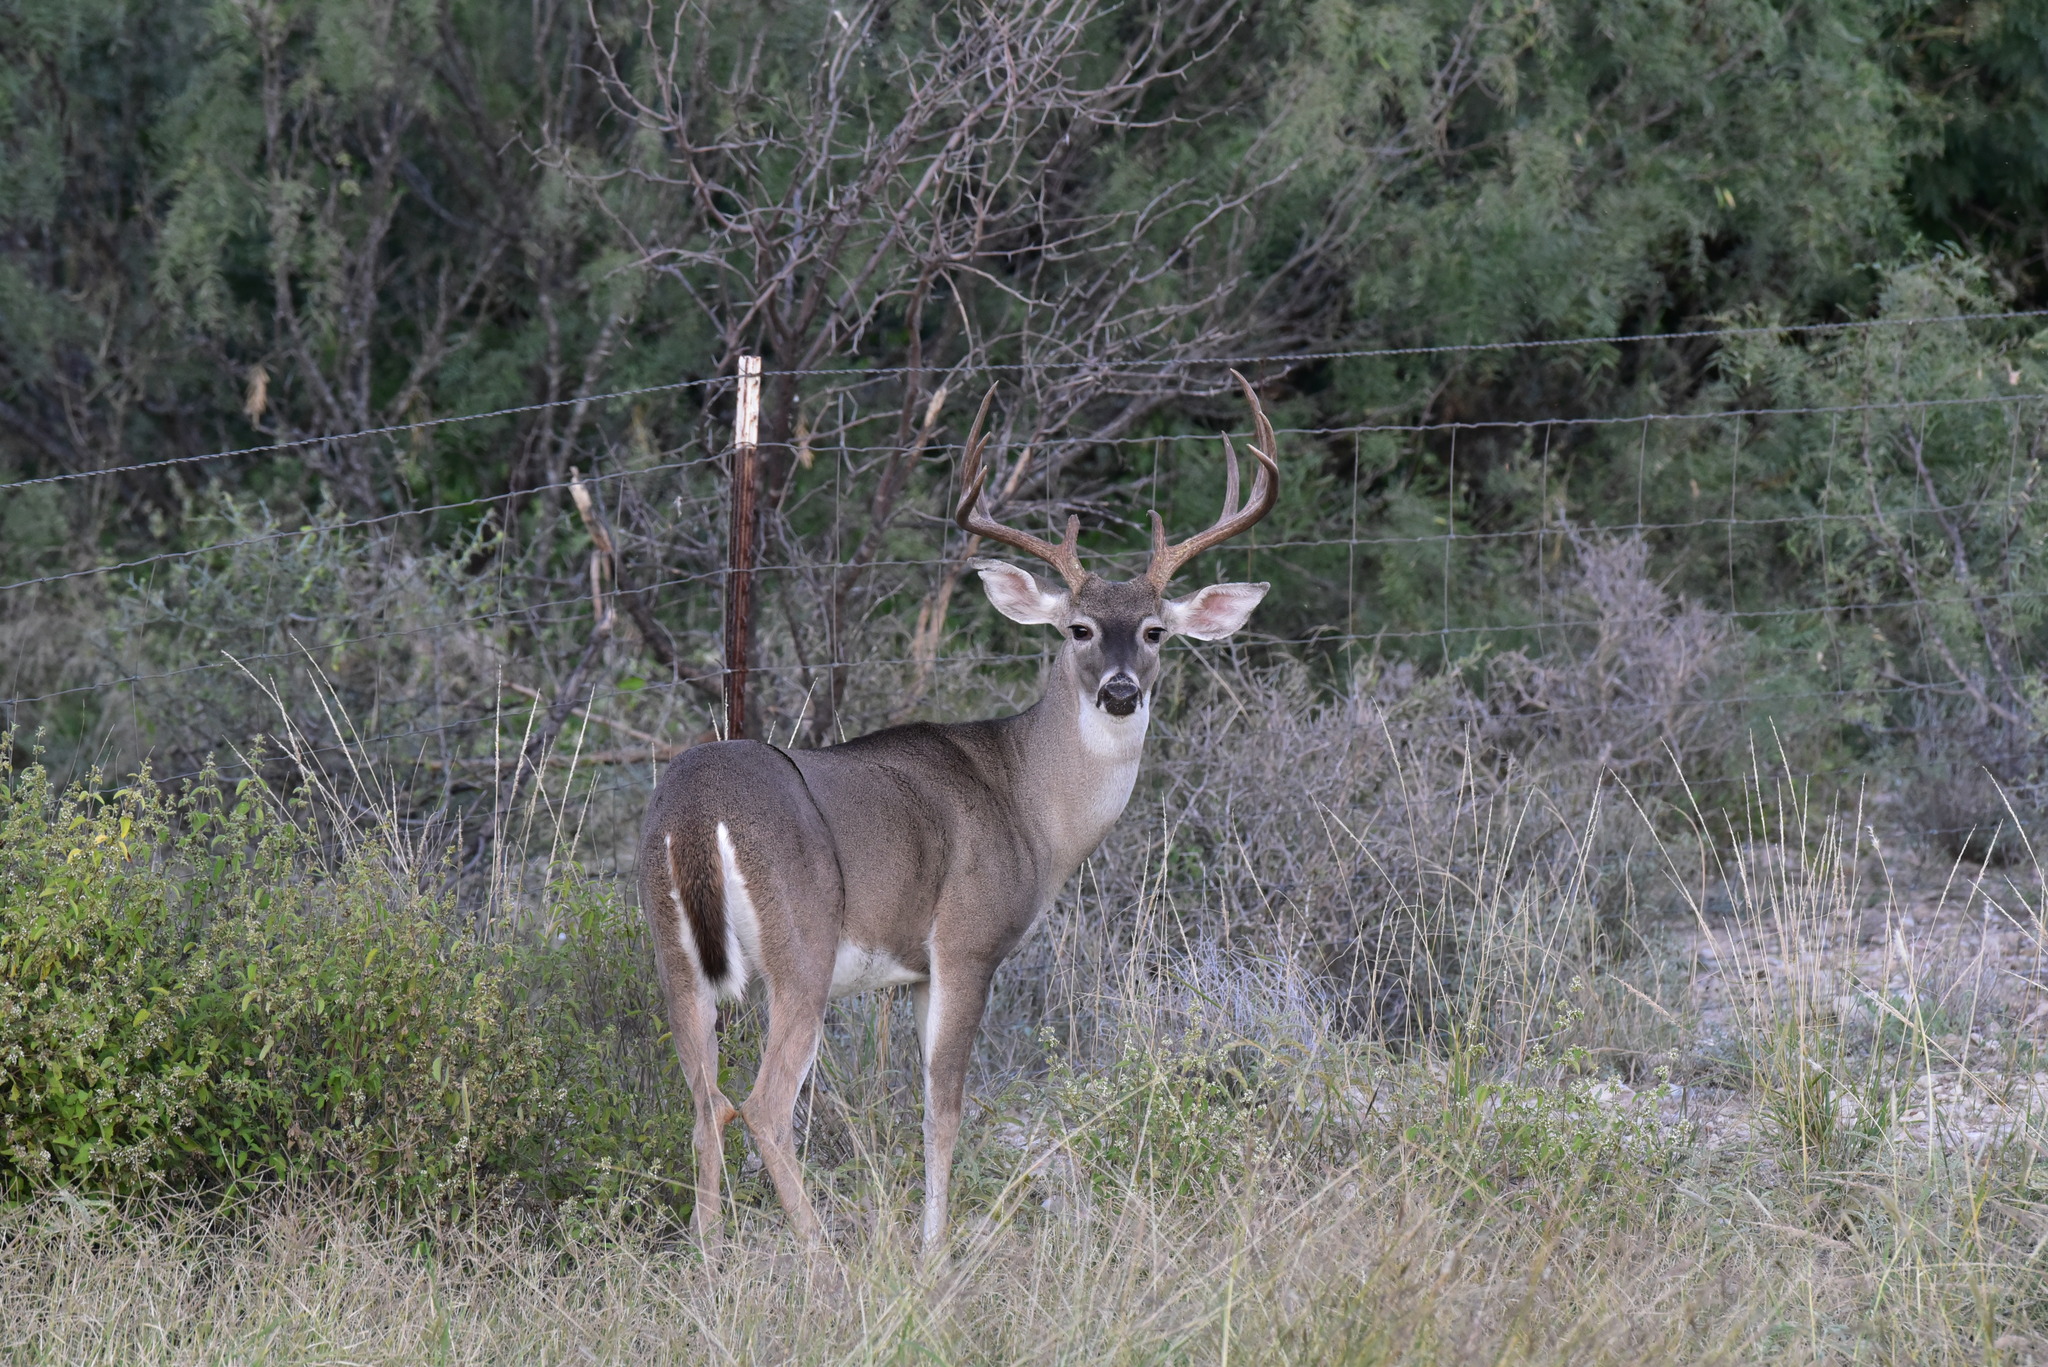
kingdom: Animalia
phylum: Chordata
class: Mammalia
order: Artiodactyla
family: Cervidae
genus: Odocoileus
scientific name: Odocoileus virginianus
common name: White-tailed deer
